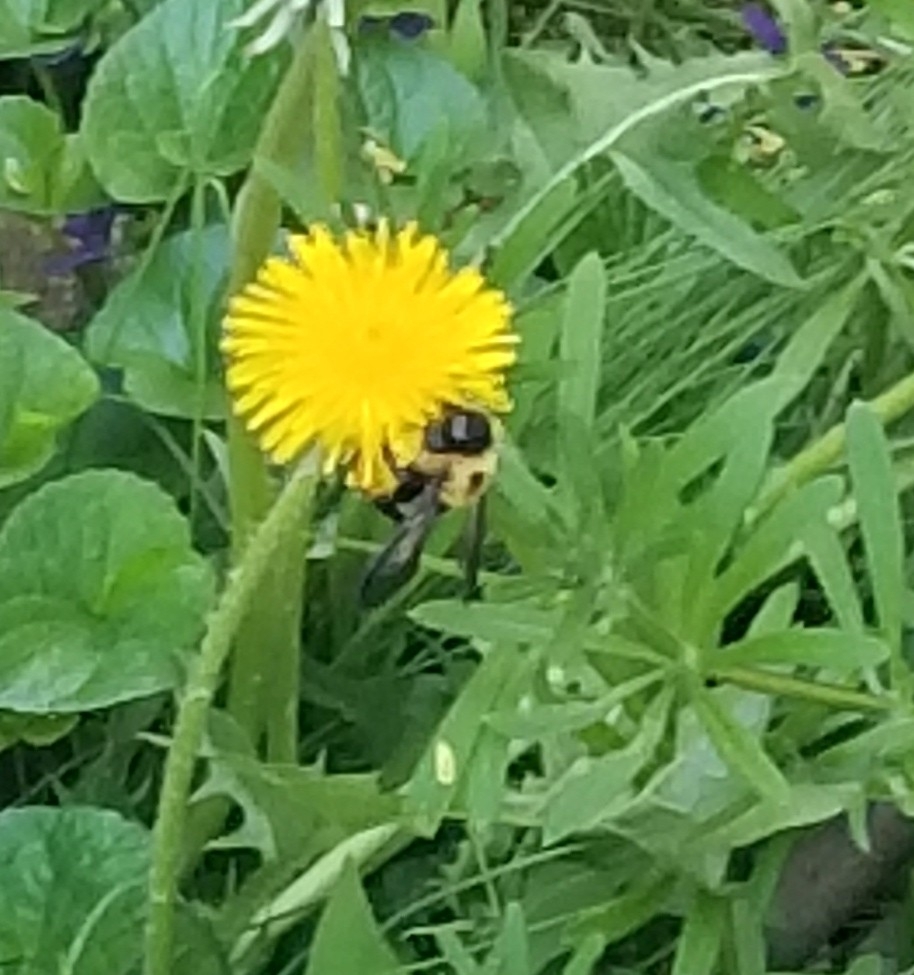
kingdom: Animalia
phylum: Arthropoda
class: Insecta
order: Hymenoptera
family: Apidae
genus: Xylocopa
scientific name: Xylocopa virginica
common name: Carpenter bee
